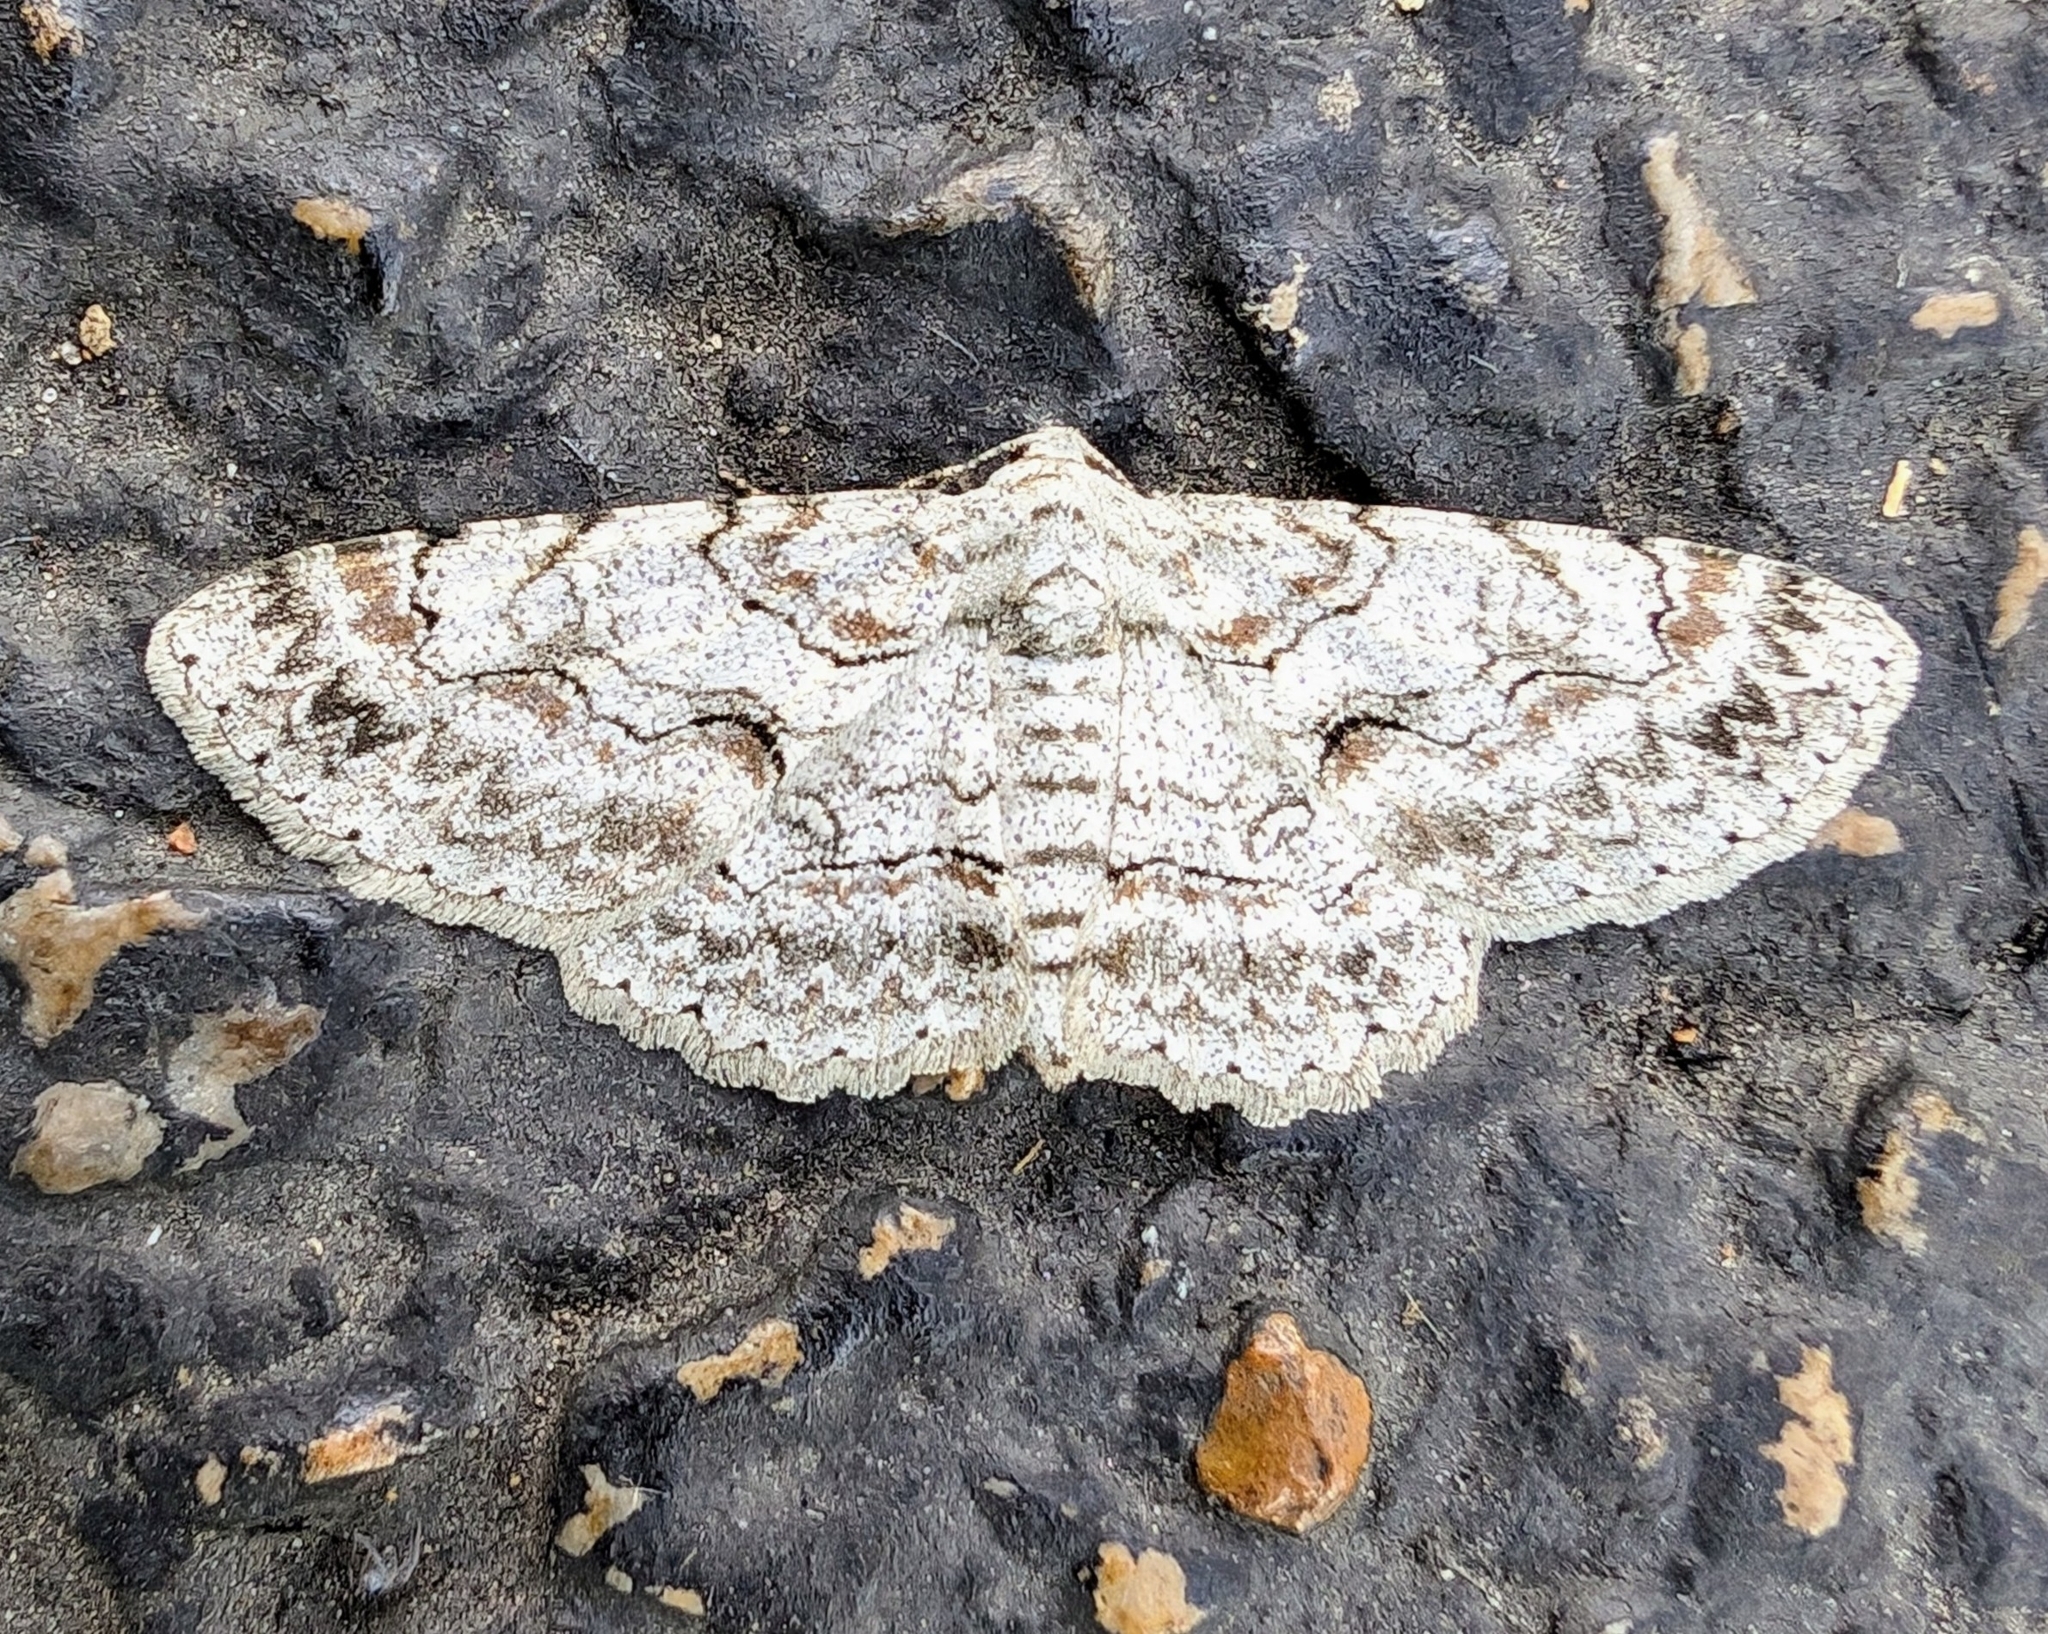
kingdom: Animalia
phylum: Arthropoda
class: Insecta
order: Lepidoptera
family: Geometridae
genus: Iridopsis
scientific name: Iridopsis defectaria
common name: Brown-shaded gray
